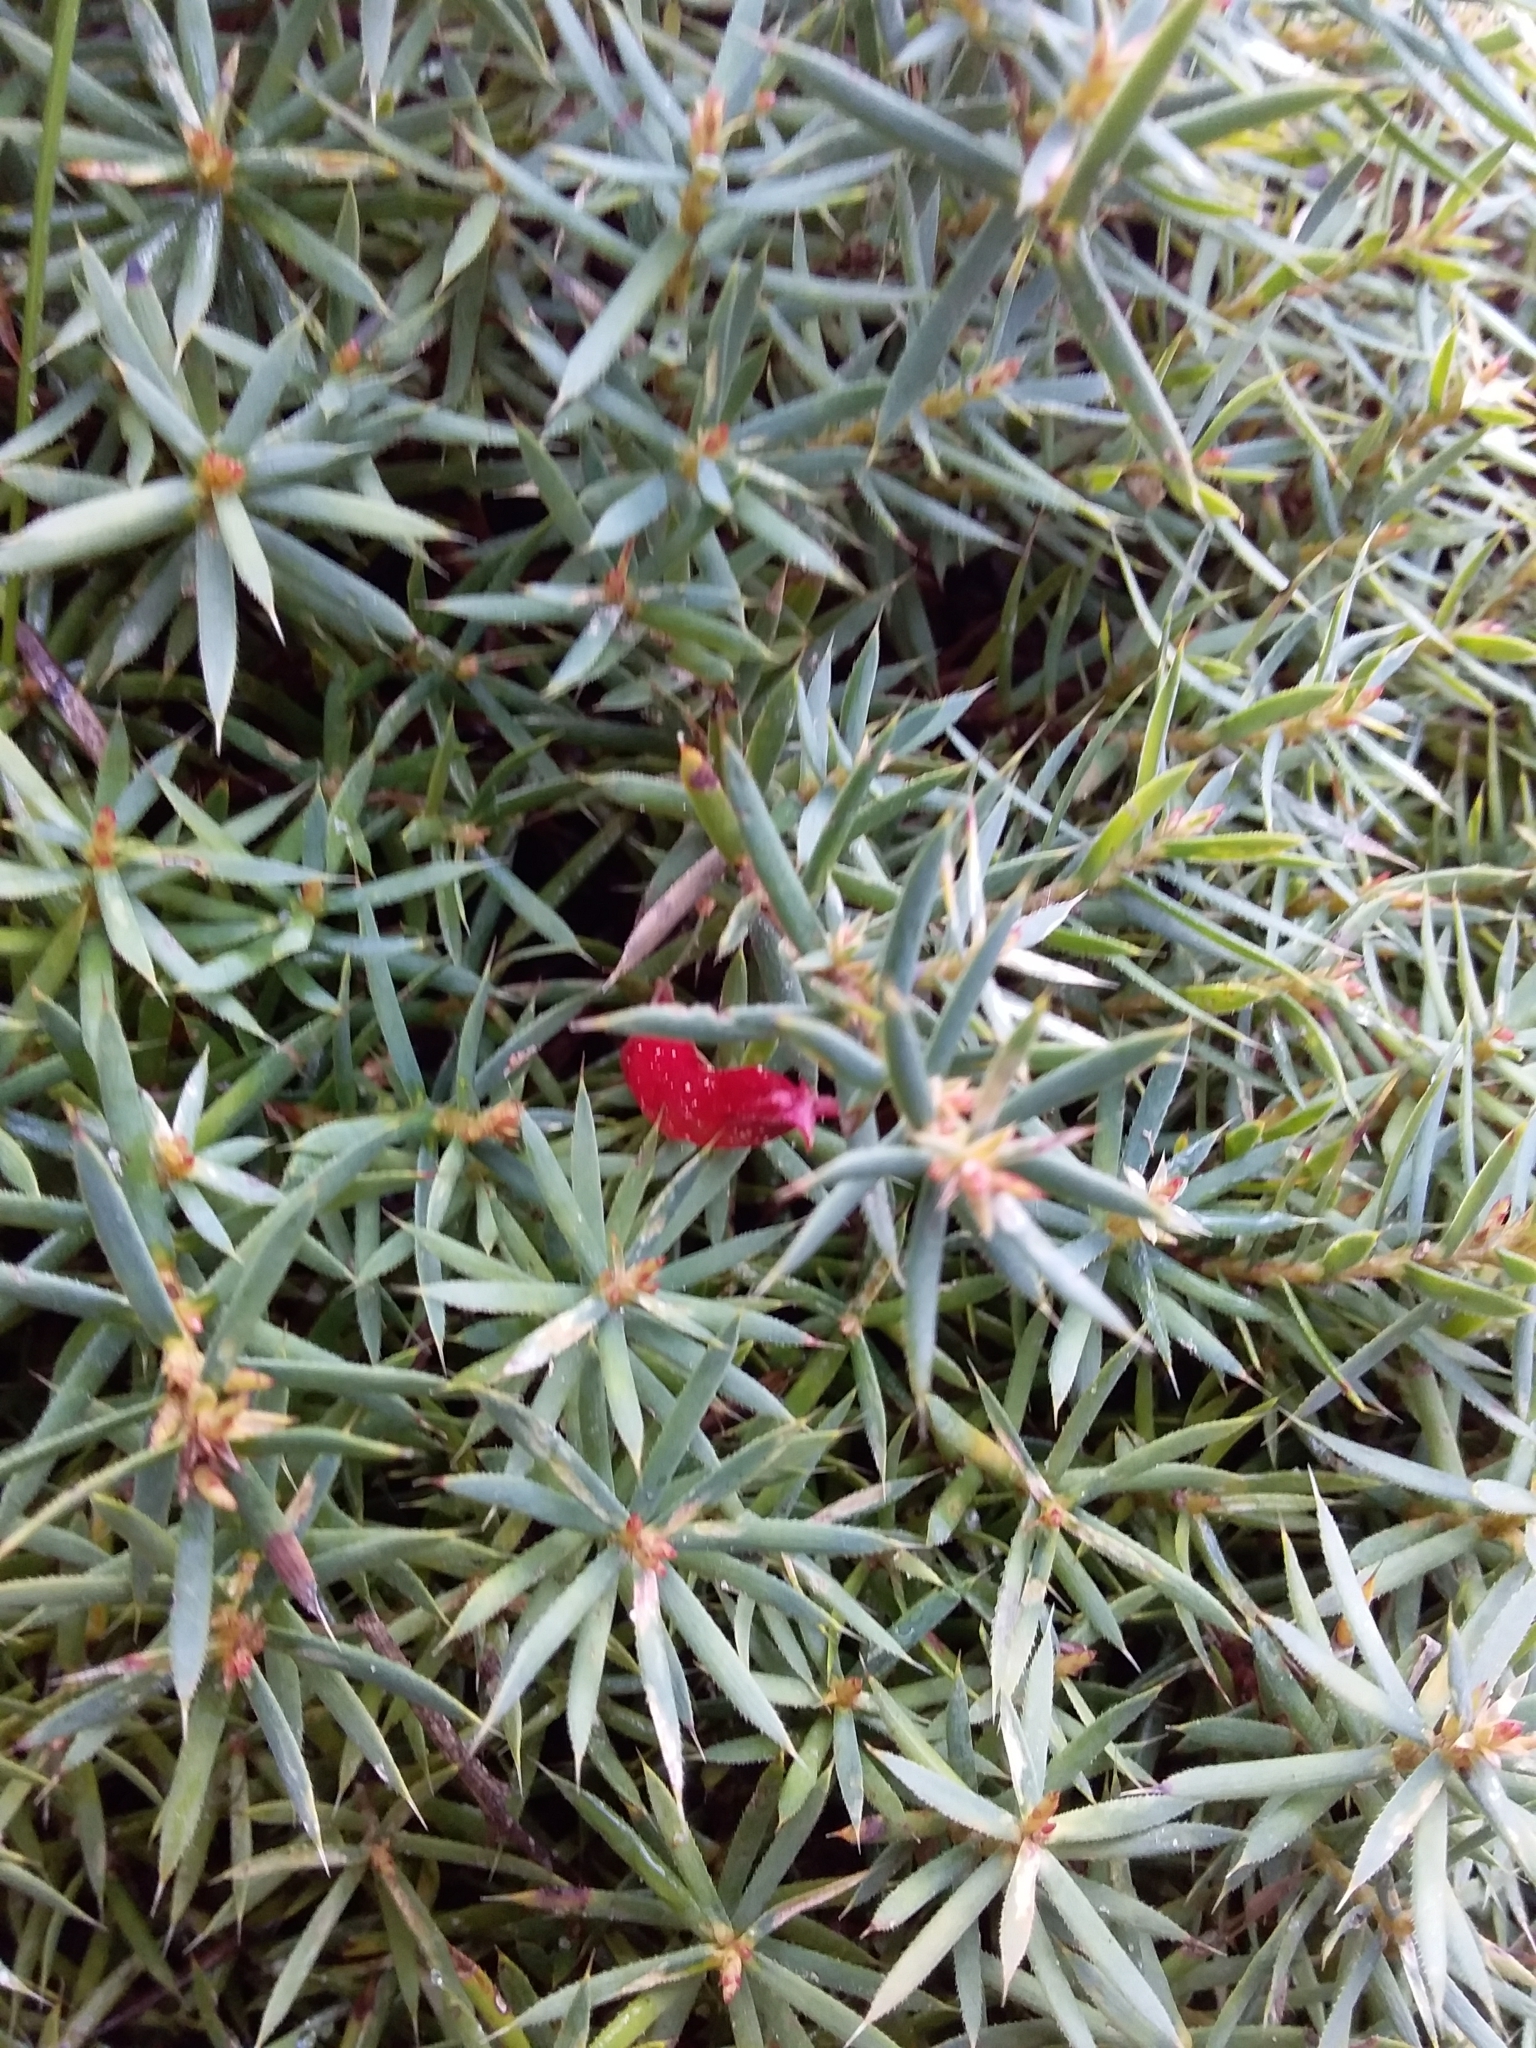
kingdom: Plantae
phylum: Tracheophyta
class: Magnoliopsida
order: Ericales
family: Ericaceae
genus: Styphelia
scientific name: Styphelia humifusa
